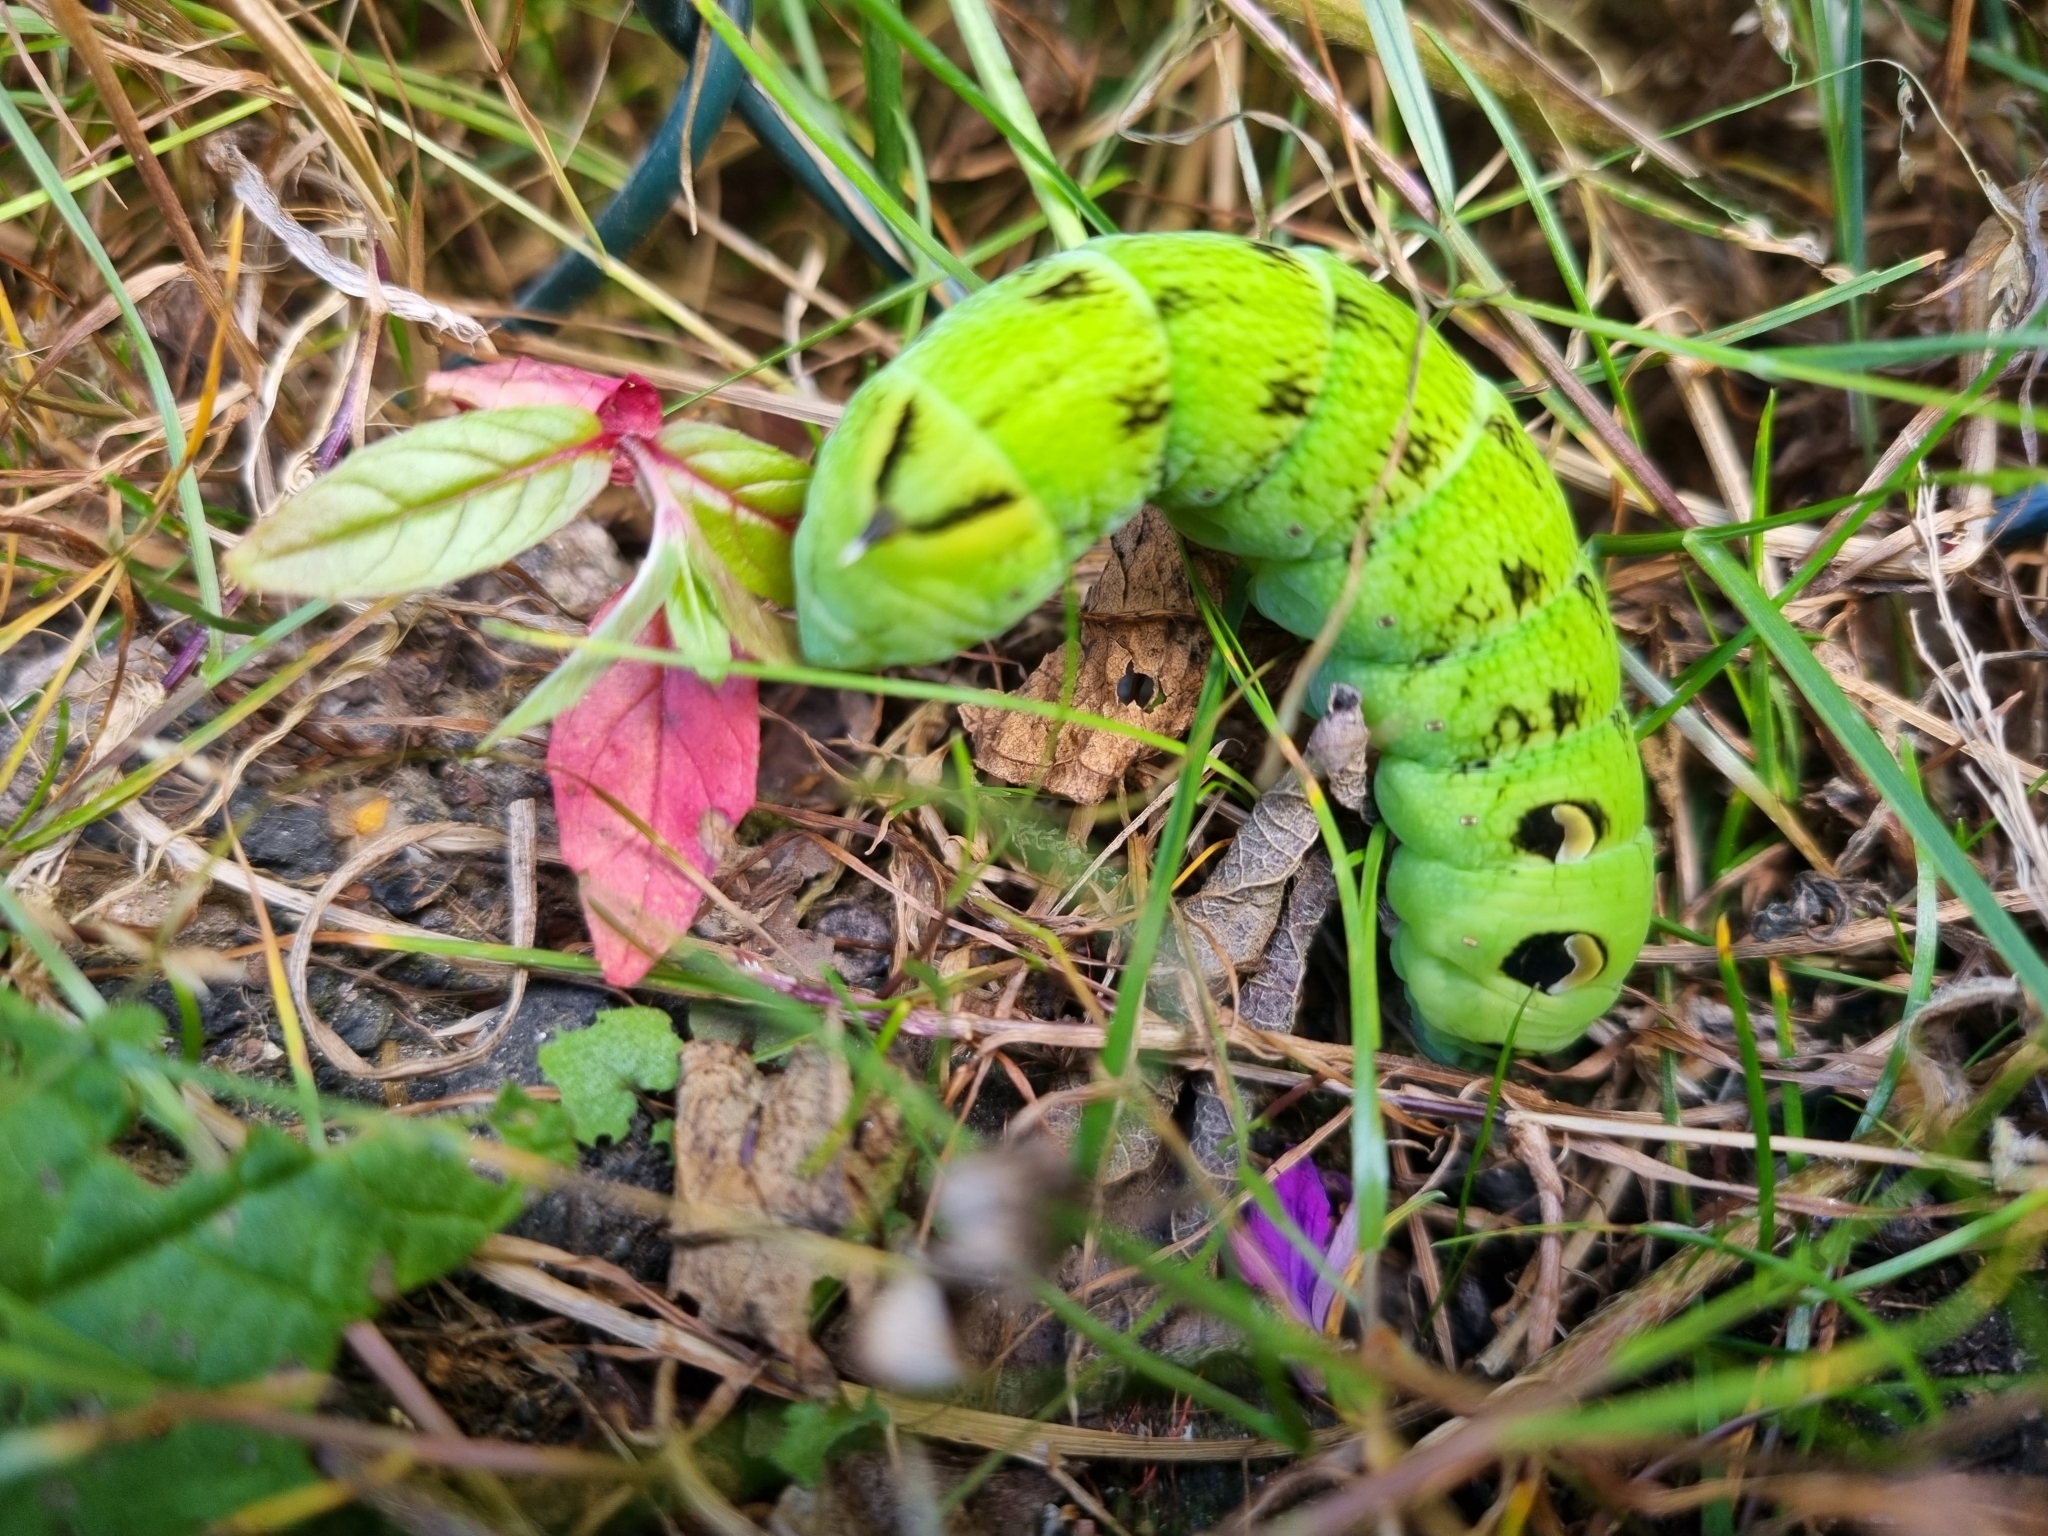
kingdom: Animalia
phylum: Arthropoda
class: Insecta
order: Lepidoptera
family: Sphingidae
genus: Deilephila
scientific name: Deilephila elpenor
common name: Elephant hawk-moth
